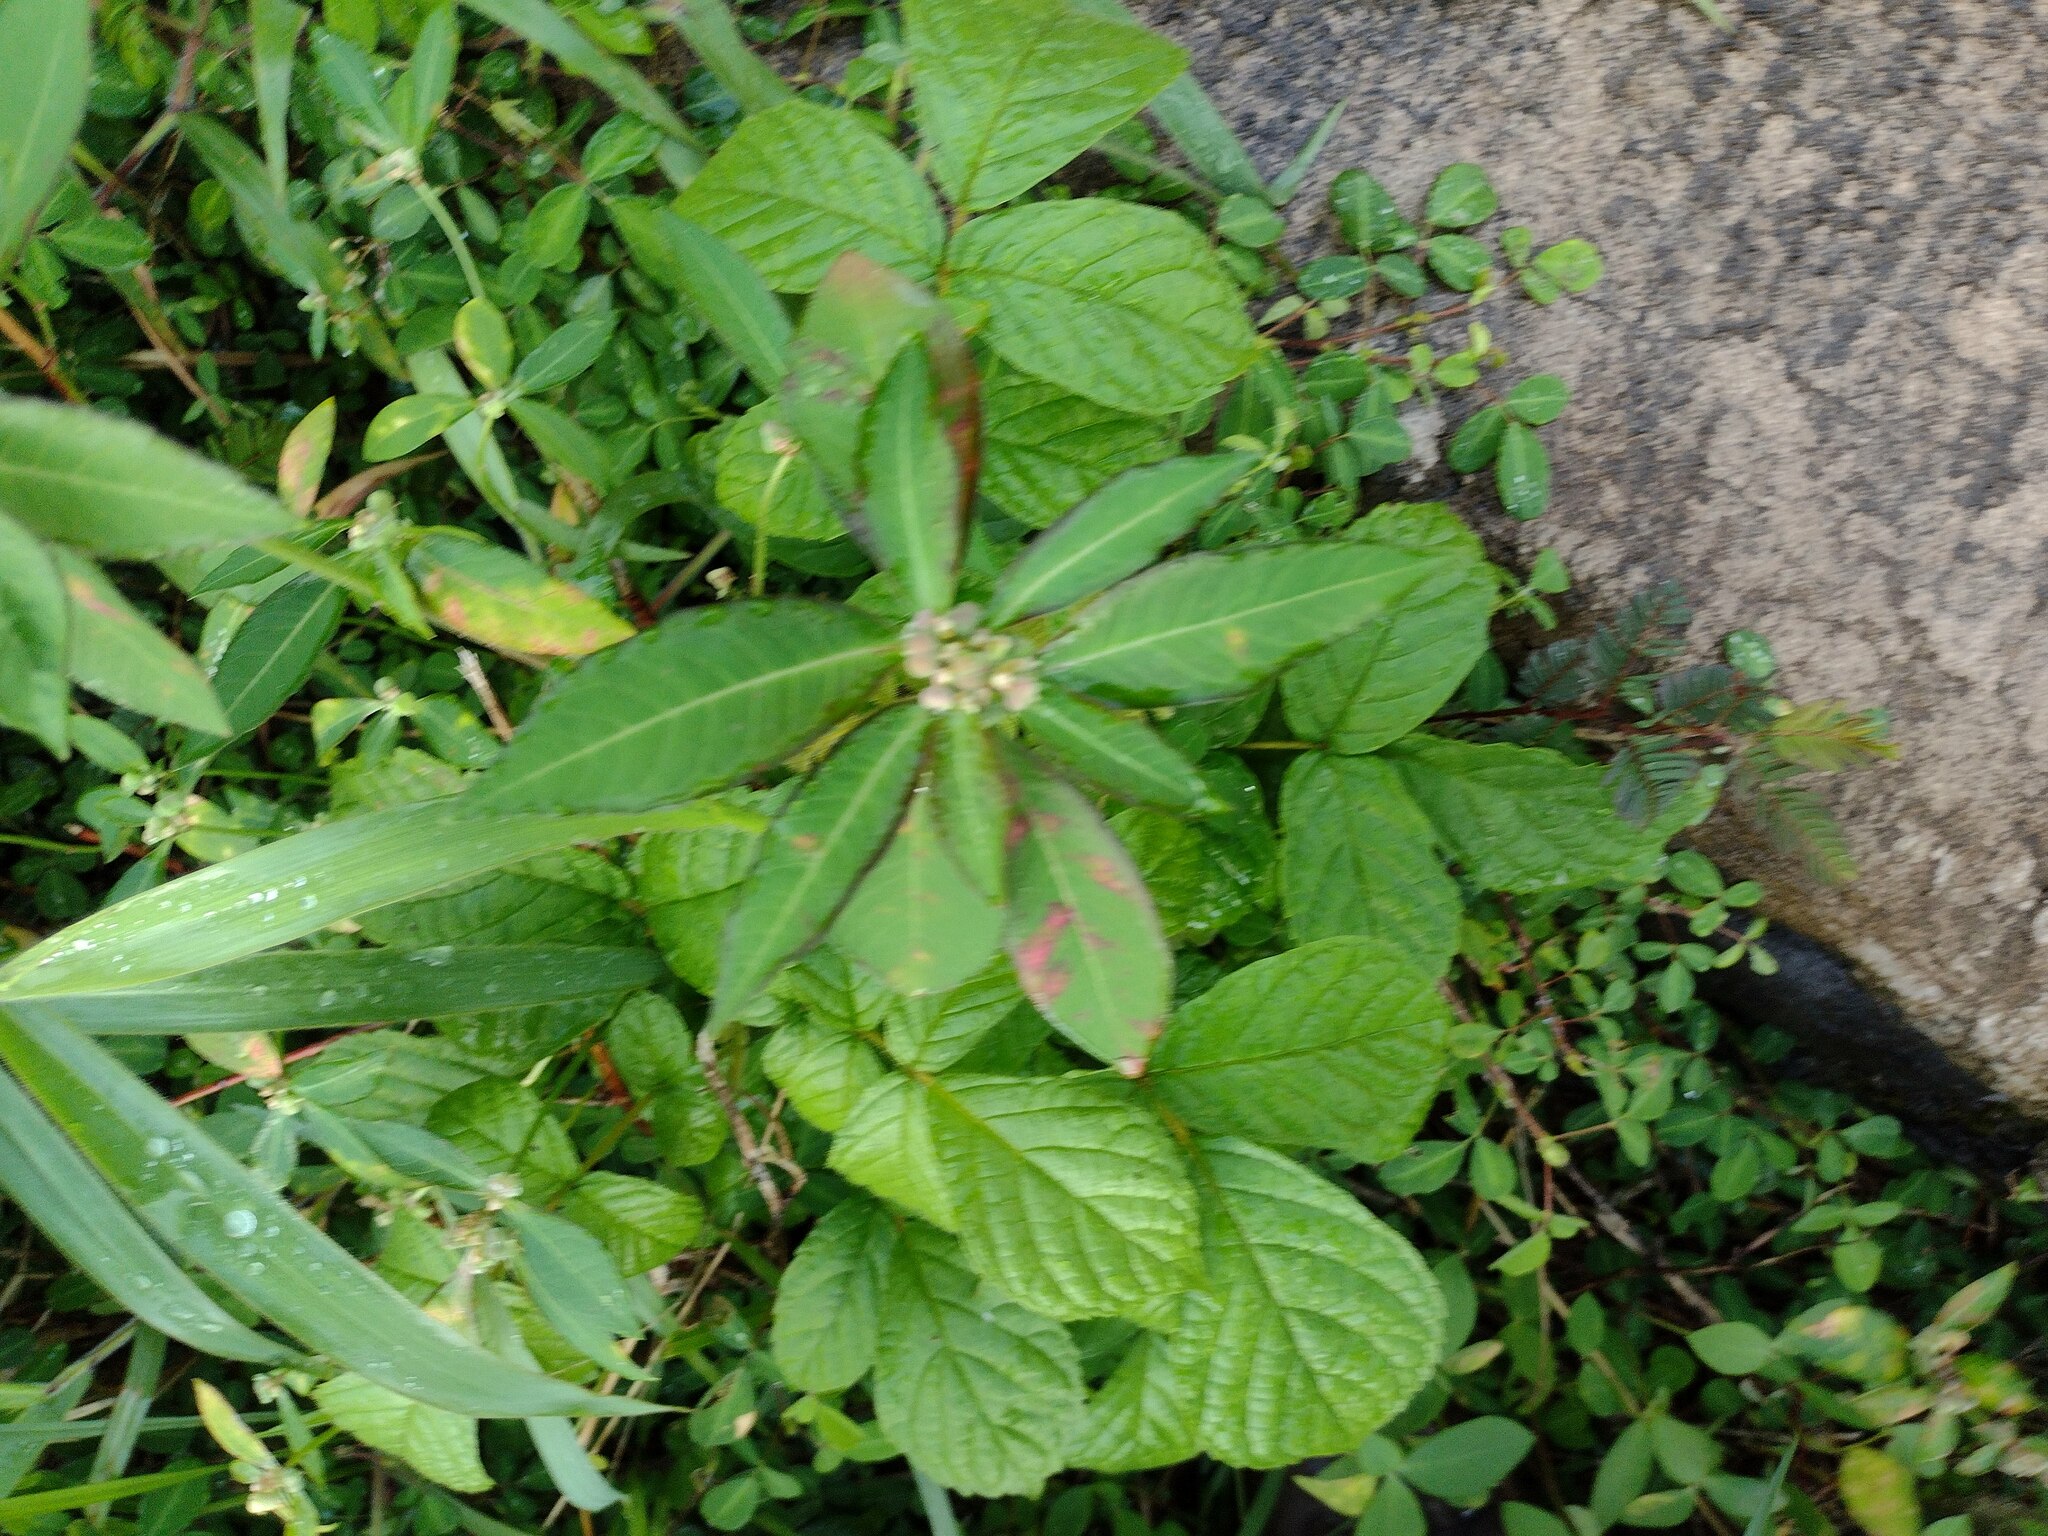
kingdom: Plantae
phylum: Tracheophyta
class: Magnoliopsida
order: Malpighiales
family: Euphorbiaceae
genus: Euphorbia
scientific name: Euphorbia heterophylla
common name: Mexican fireplant
